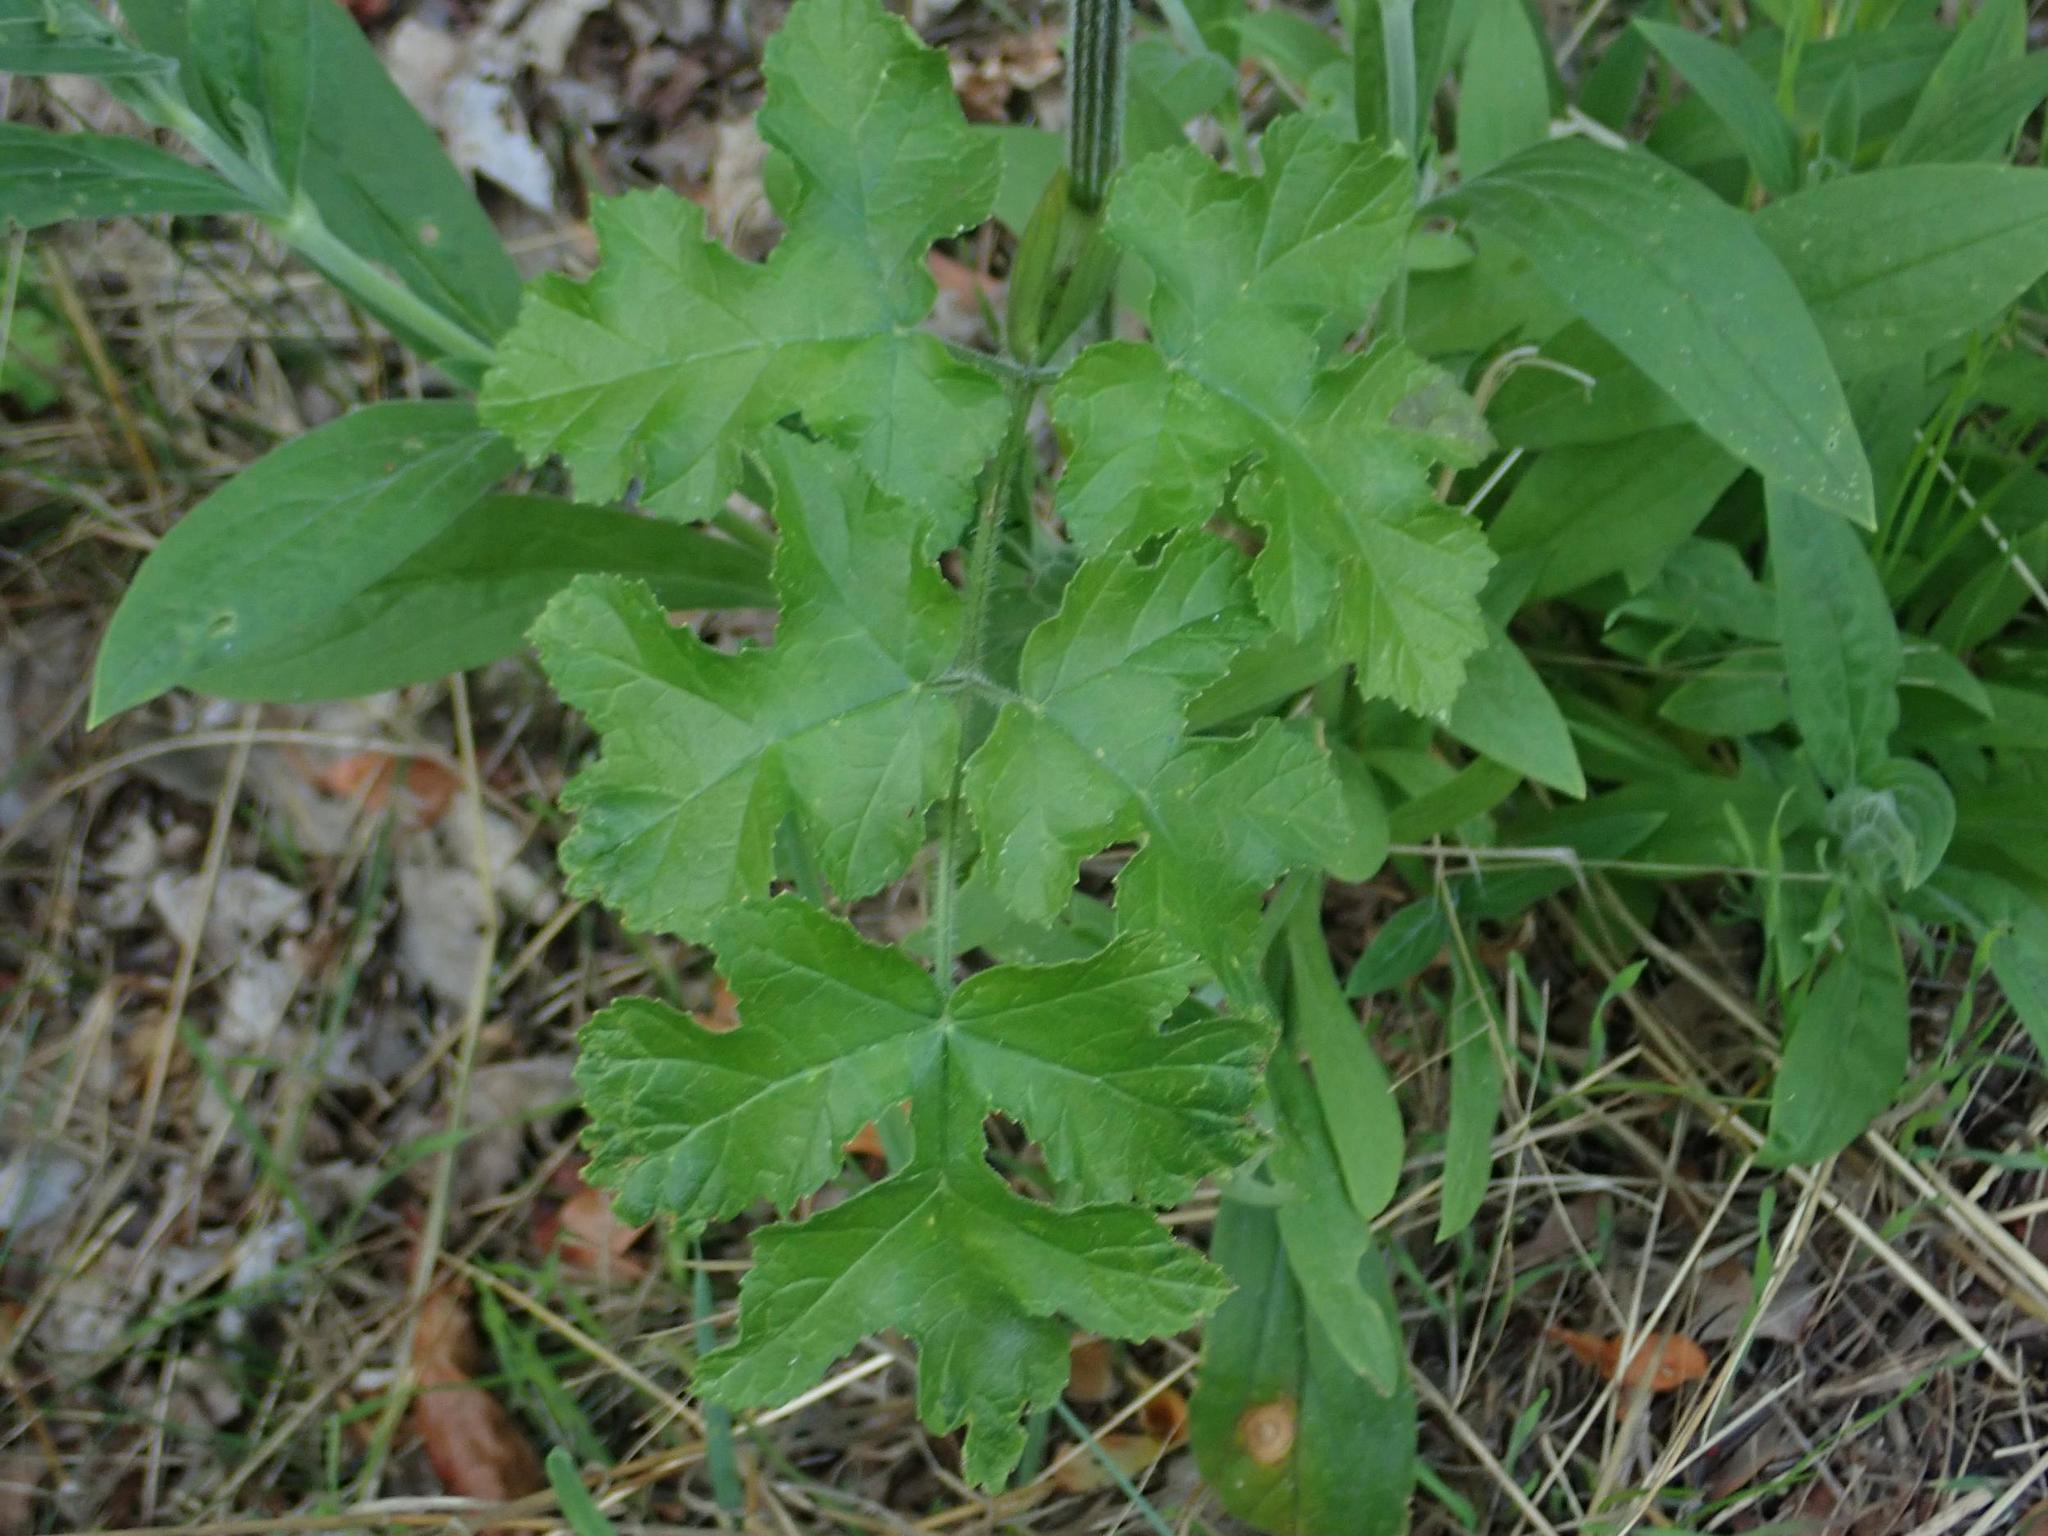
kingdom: Plantae
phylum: Tracheophyta
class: Magnoliopsida
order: Apiales
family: Apiaceae
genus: Heracleum
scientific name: Heracleum sphondylium
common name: Hogweed
